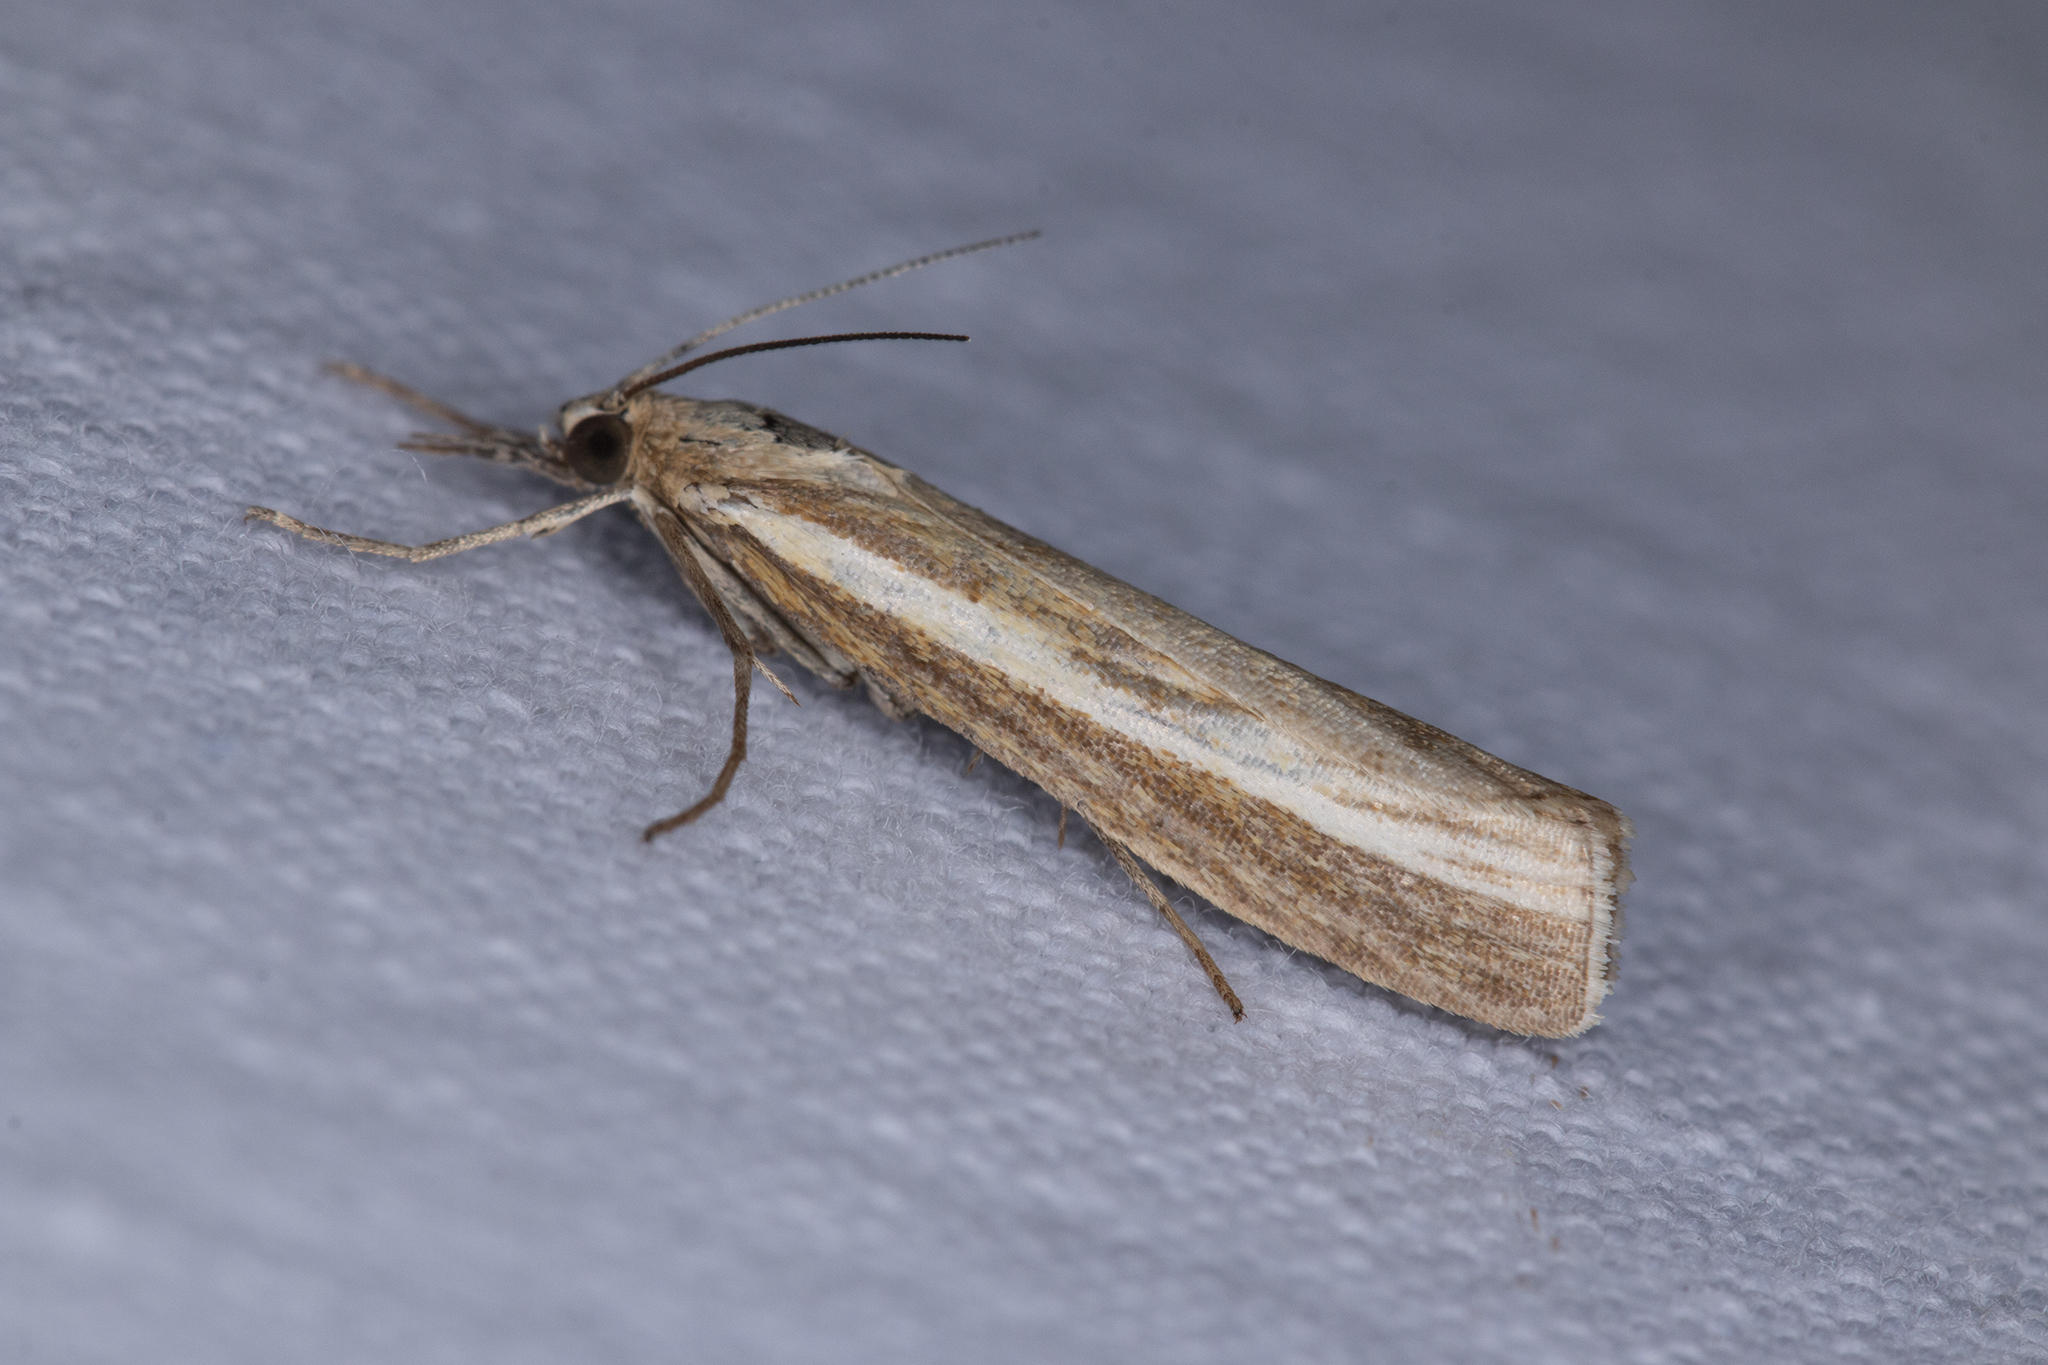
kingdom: Animalia
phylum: Arthropoda
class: Insecta
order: Lepidoptera
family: Crambidae
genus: Agriphila
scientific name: Agriphila tristellus
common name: Common grass-veneer
